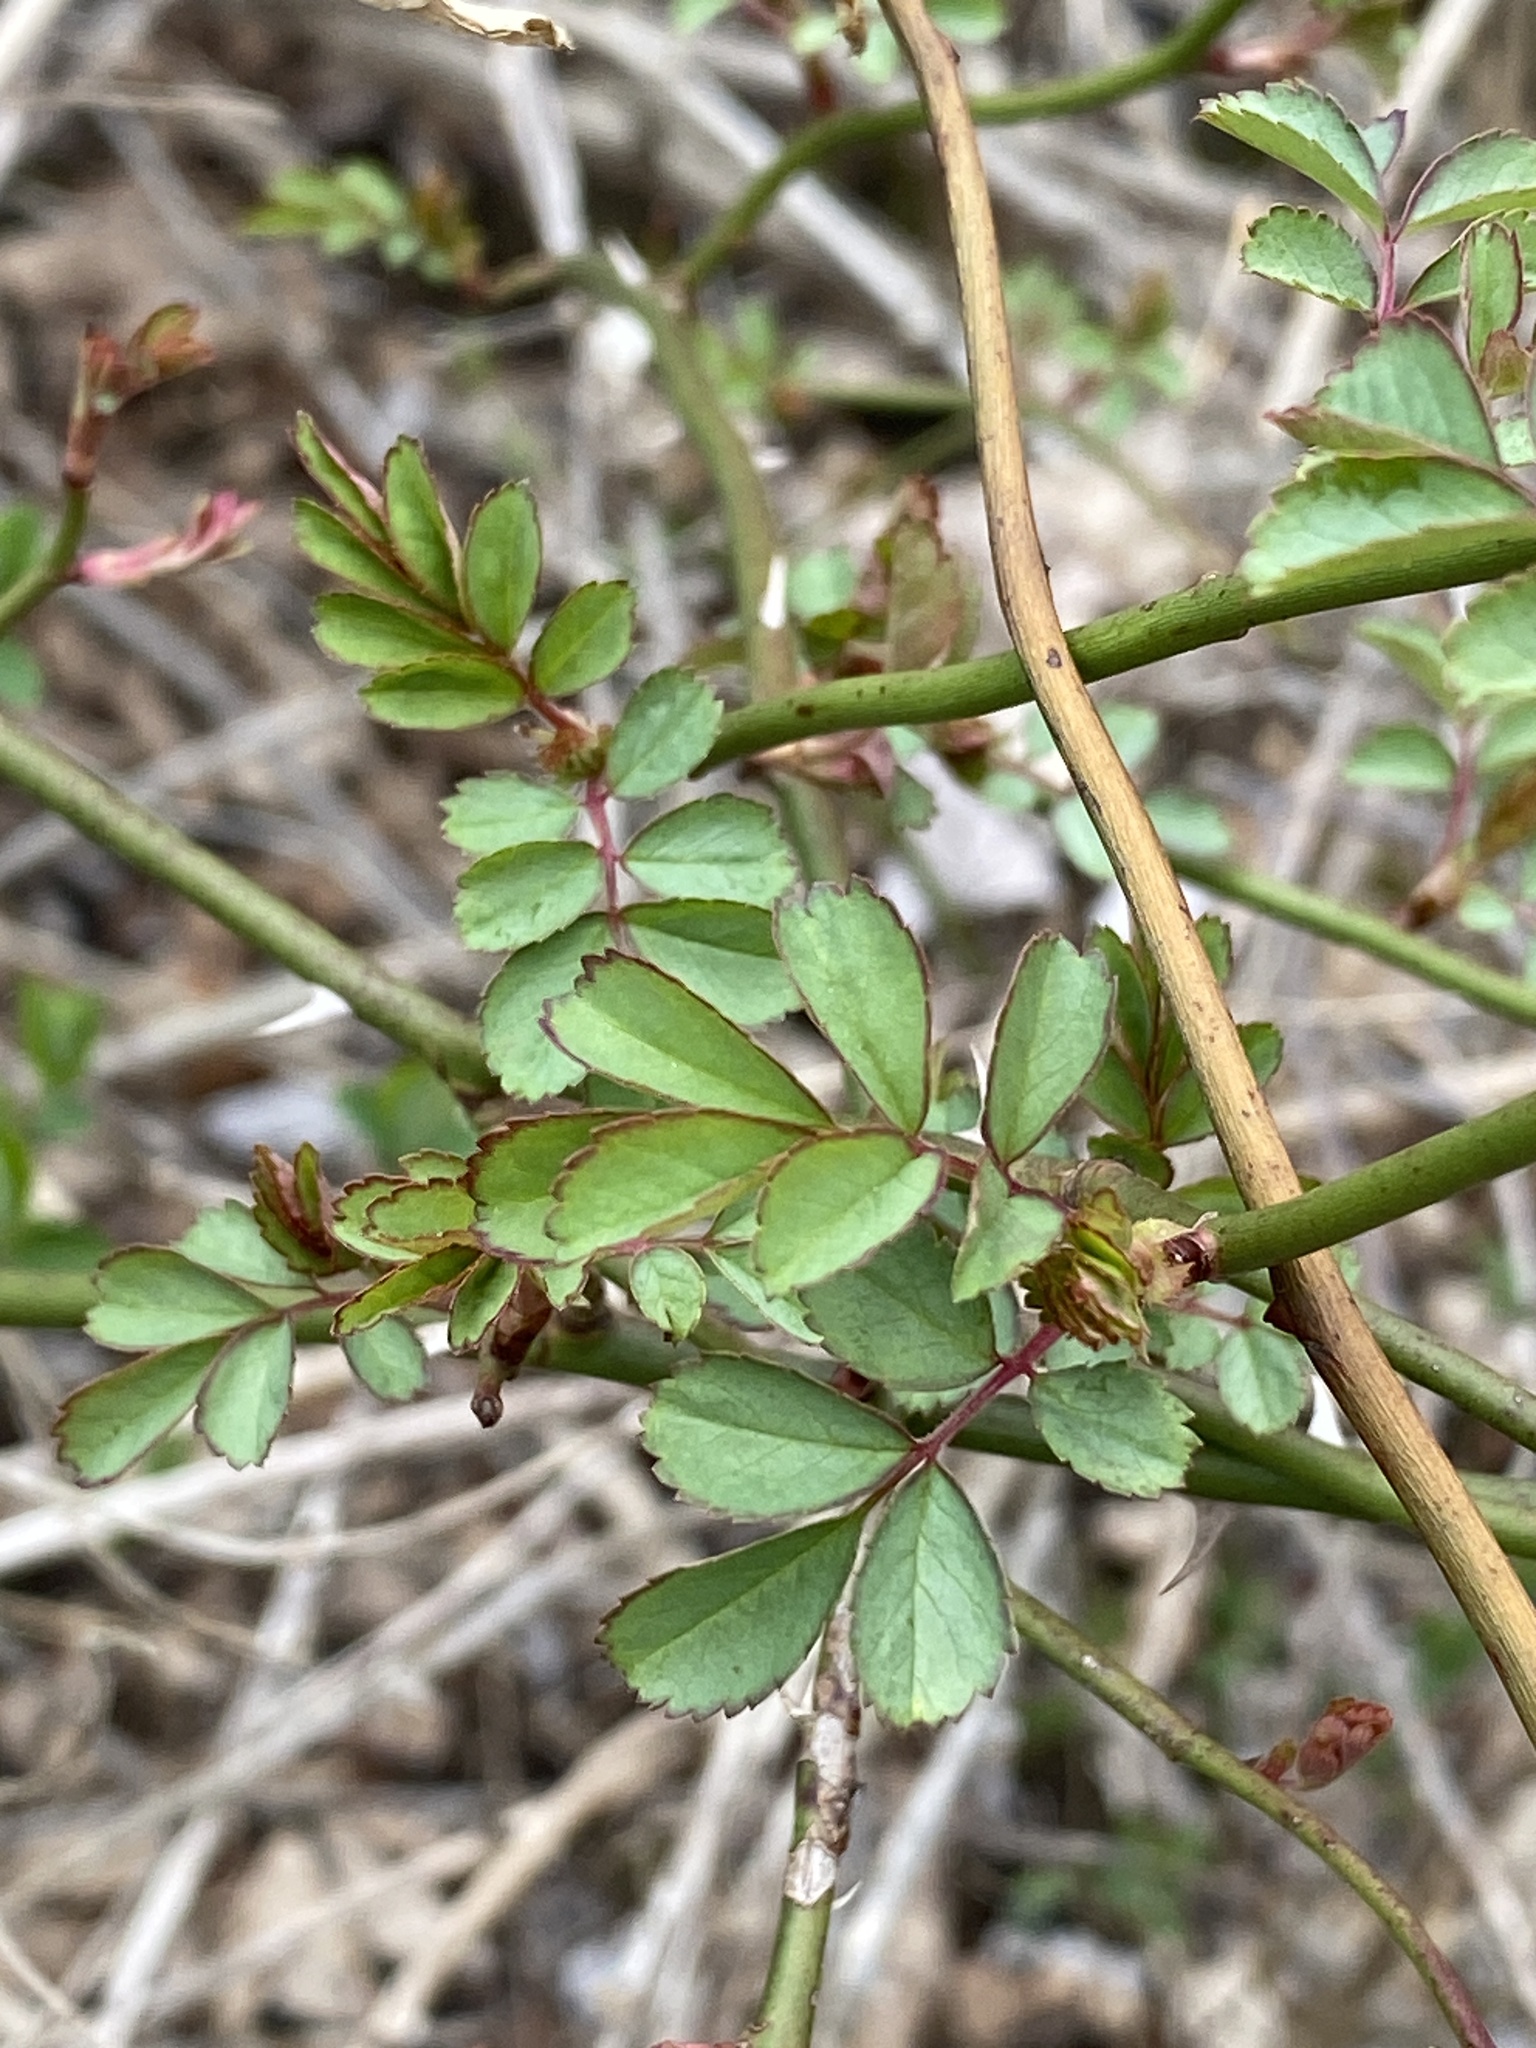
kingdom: Plantae
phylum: Tracheophyta
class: Magnoliopsida
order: Rosales
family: Rosaceae
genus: Rosa
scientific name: Rosa multiflora
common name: Multiflora rose
